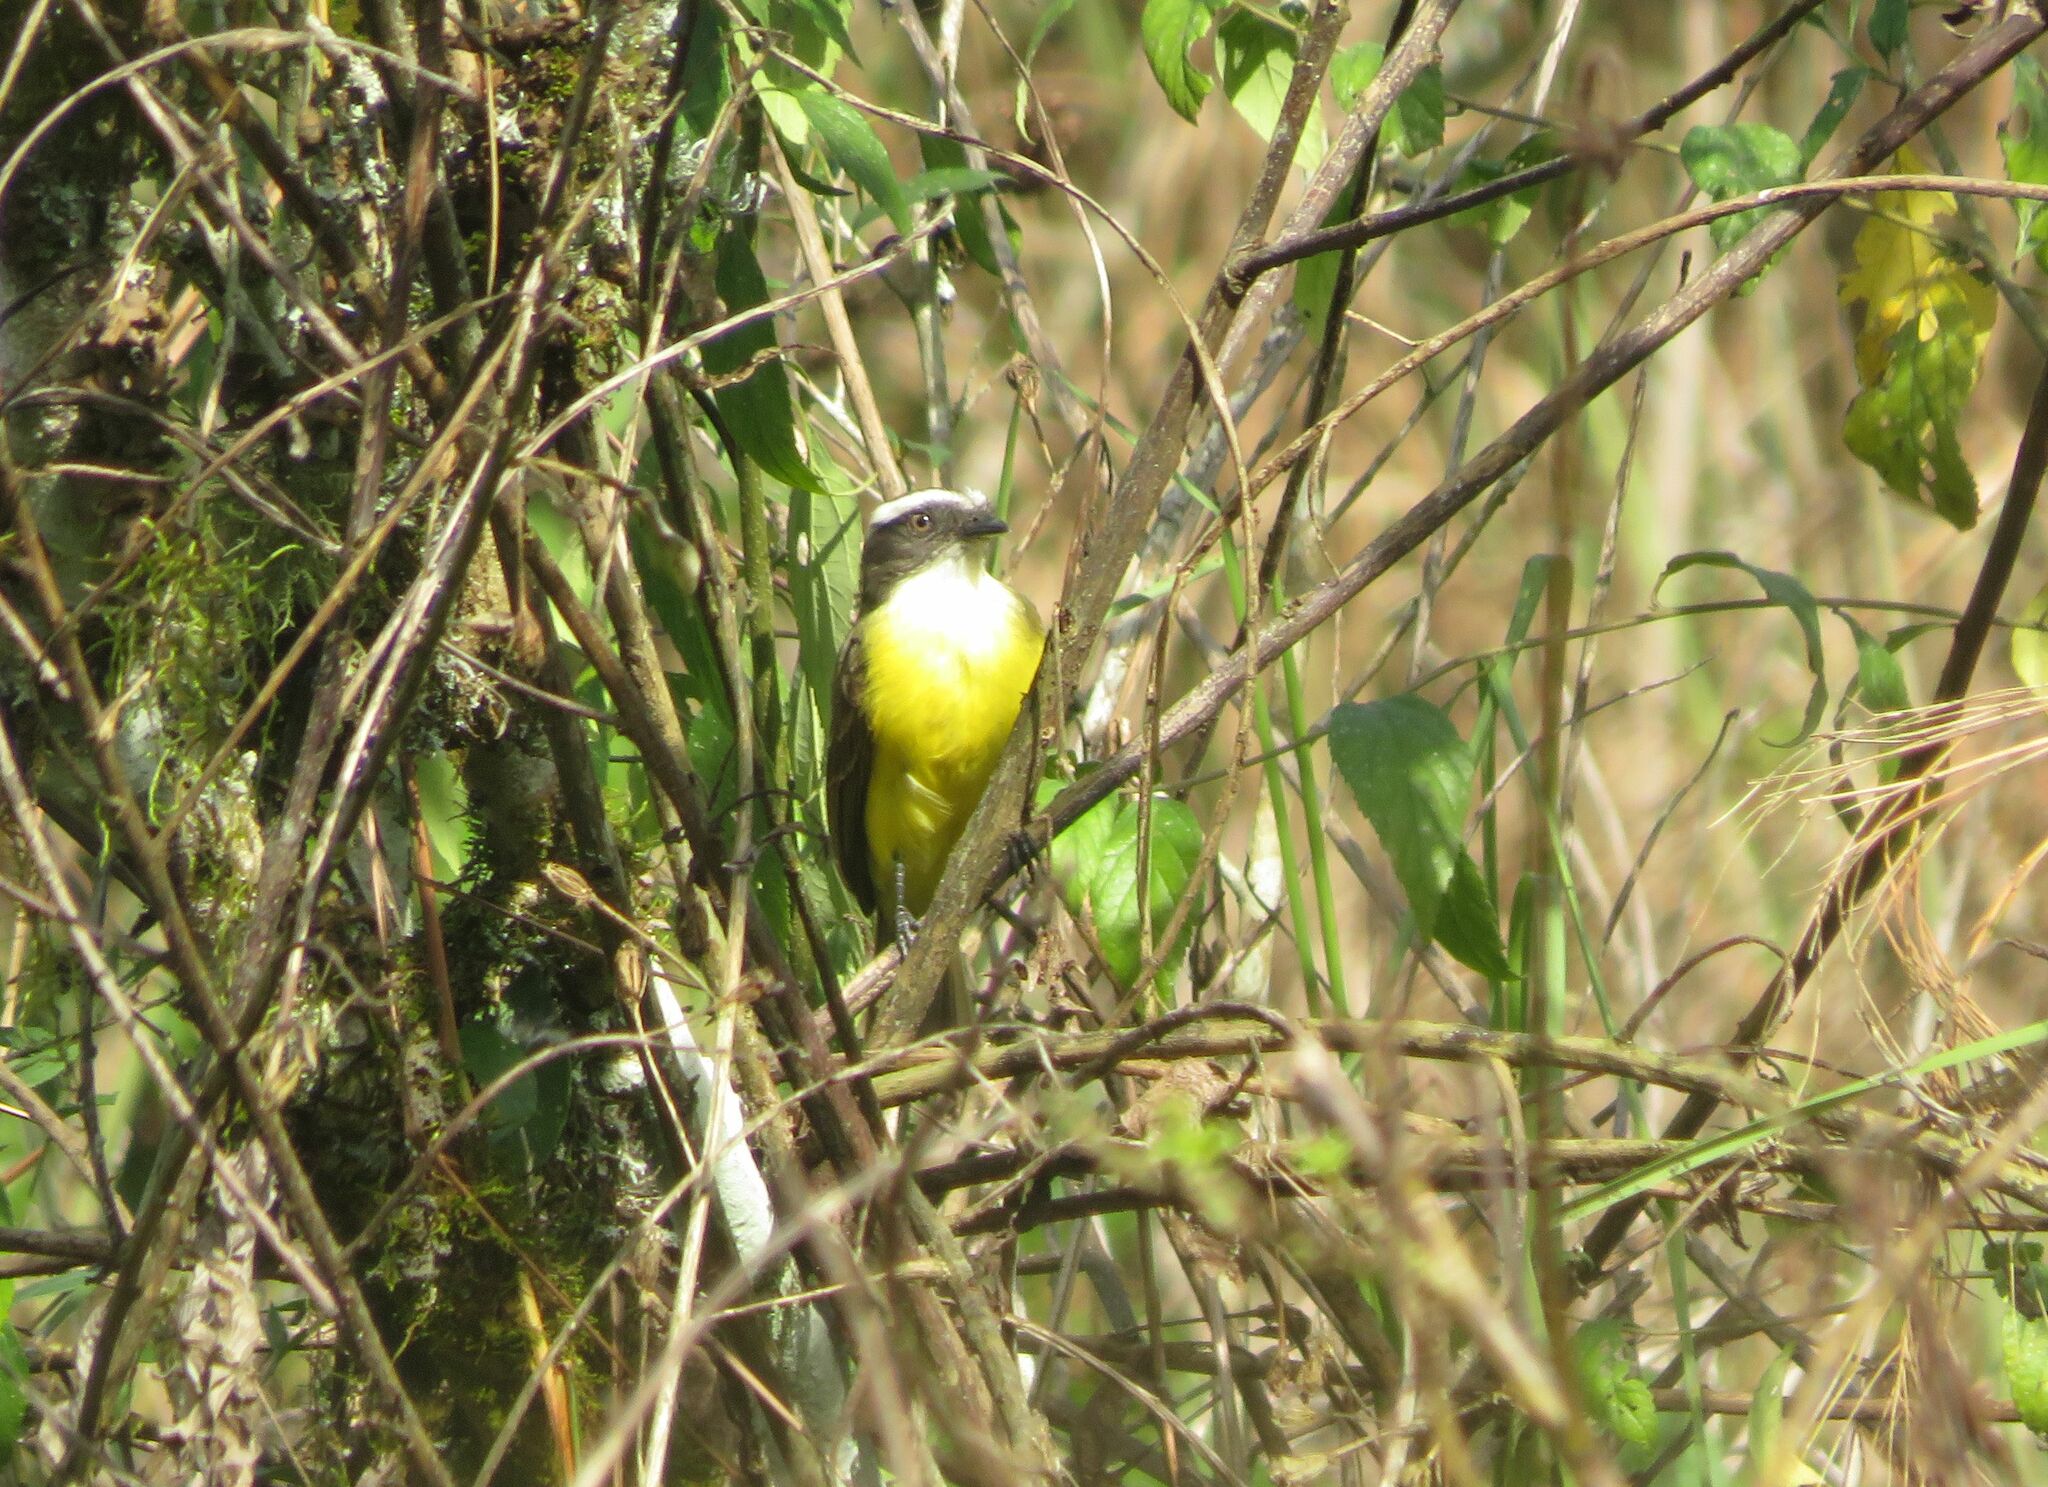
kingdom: Animalia
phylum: Chordata
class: Aves
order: Passeriformes
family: Tyrannidae
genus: Myiozetetes
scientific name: Myiozetetes similis
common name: Social flycatcher
